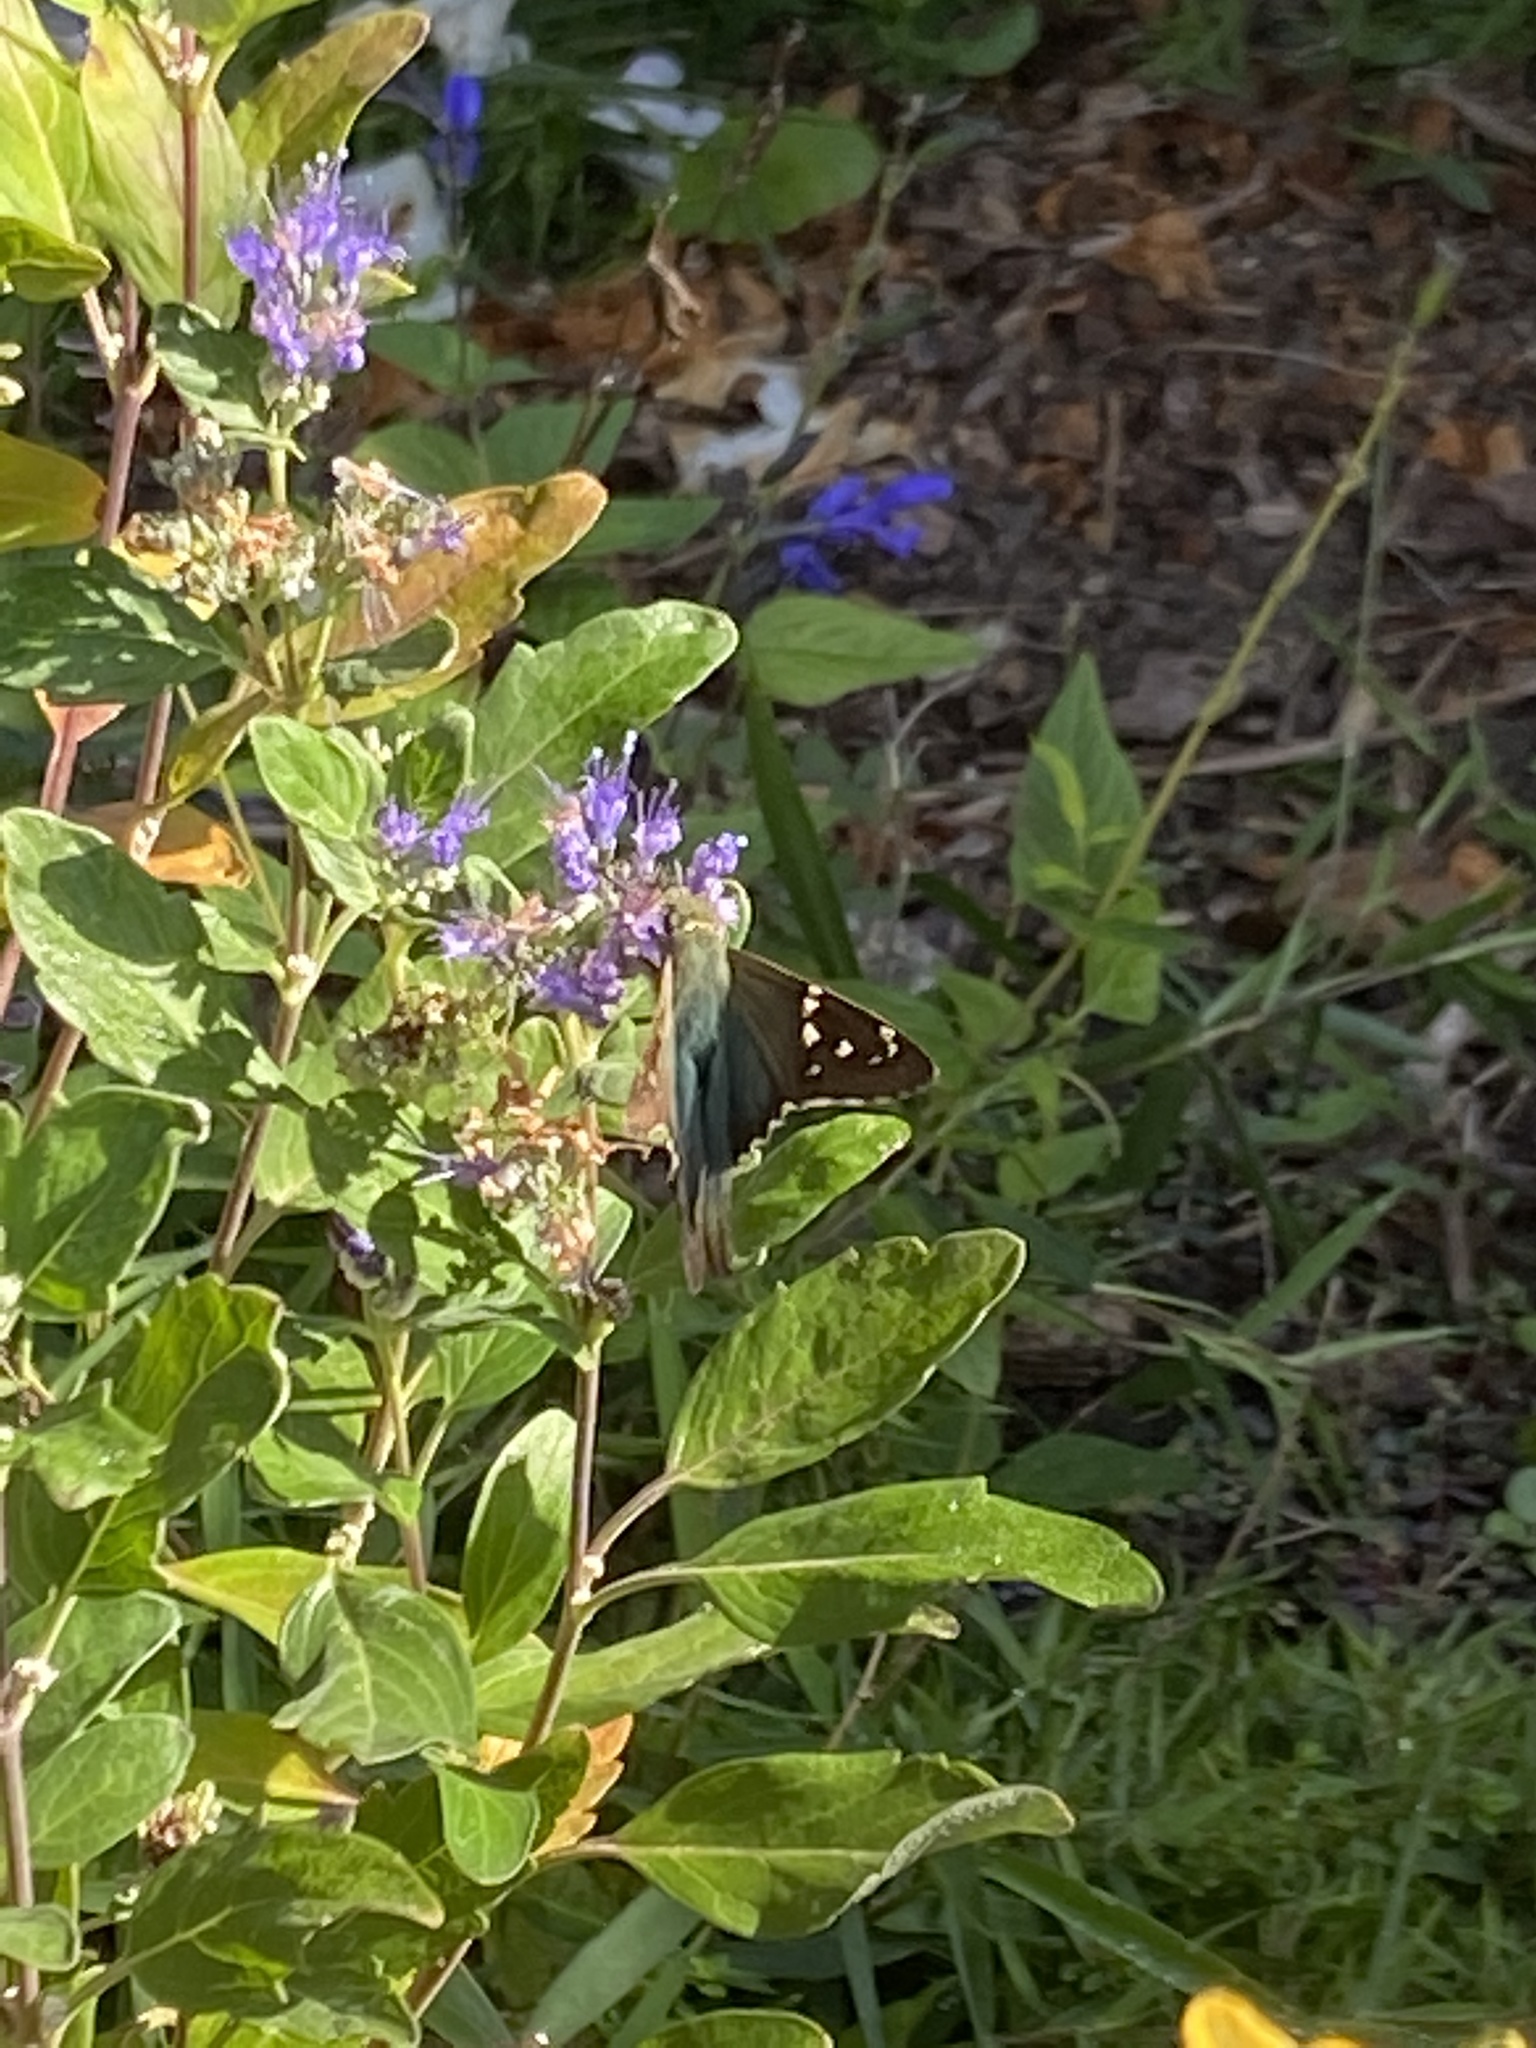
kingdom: Animalia
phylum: Arthropoda
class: Insecta
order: Lepidoptera
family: Hesperiidae
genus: Urbanus
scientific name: Urbanus proteus
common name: Long-tailed skipper
